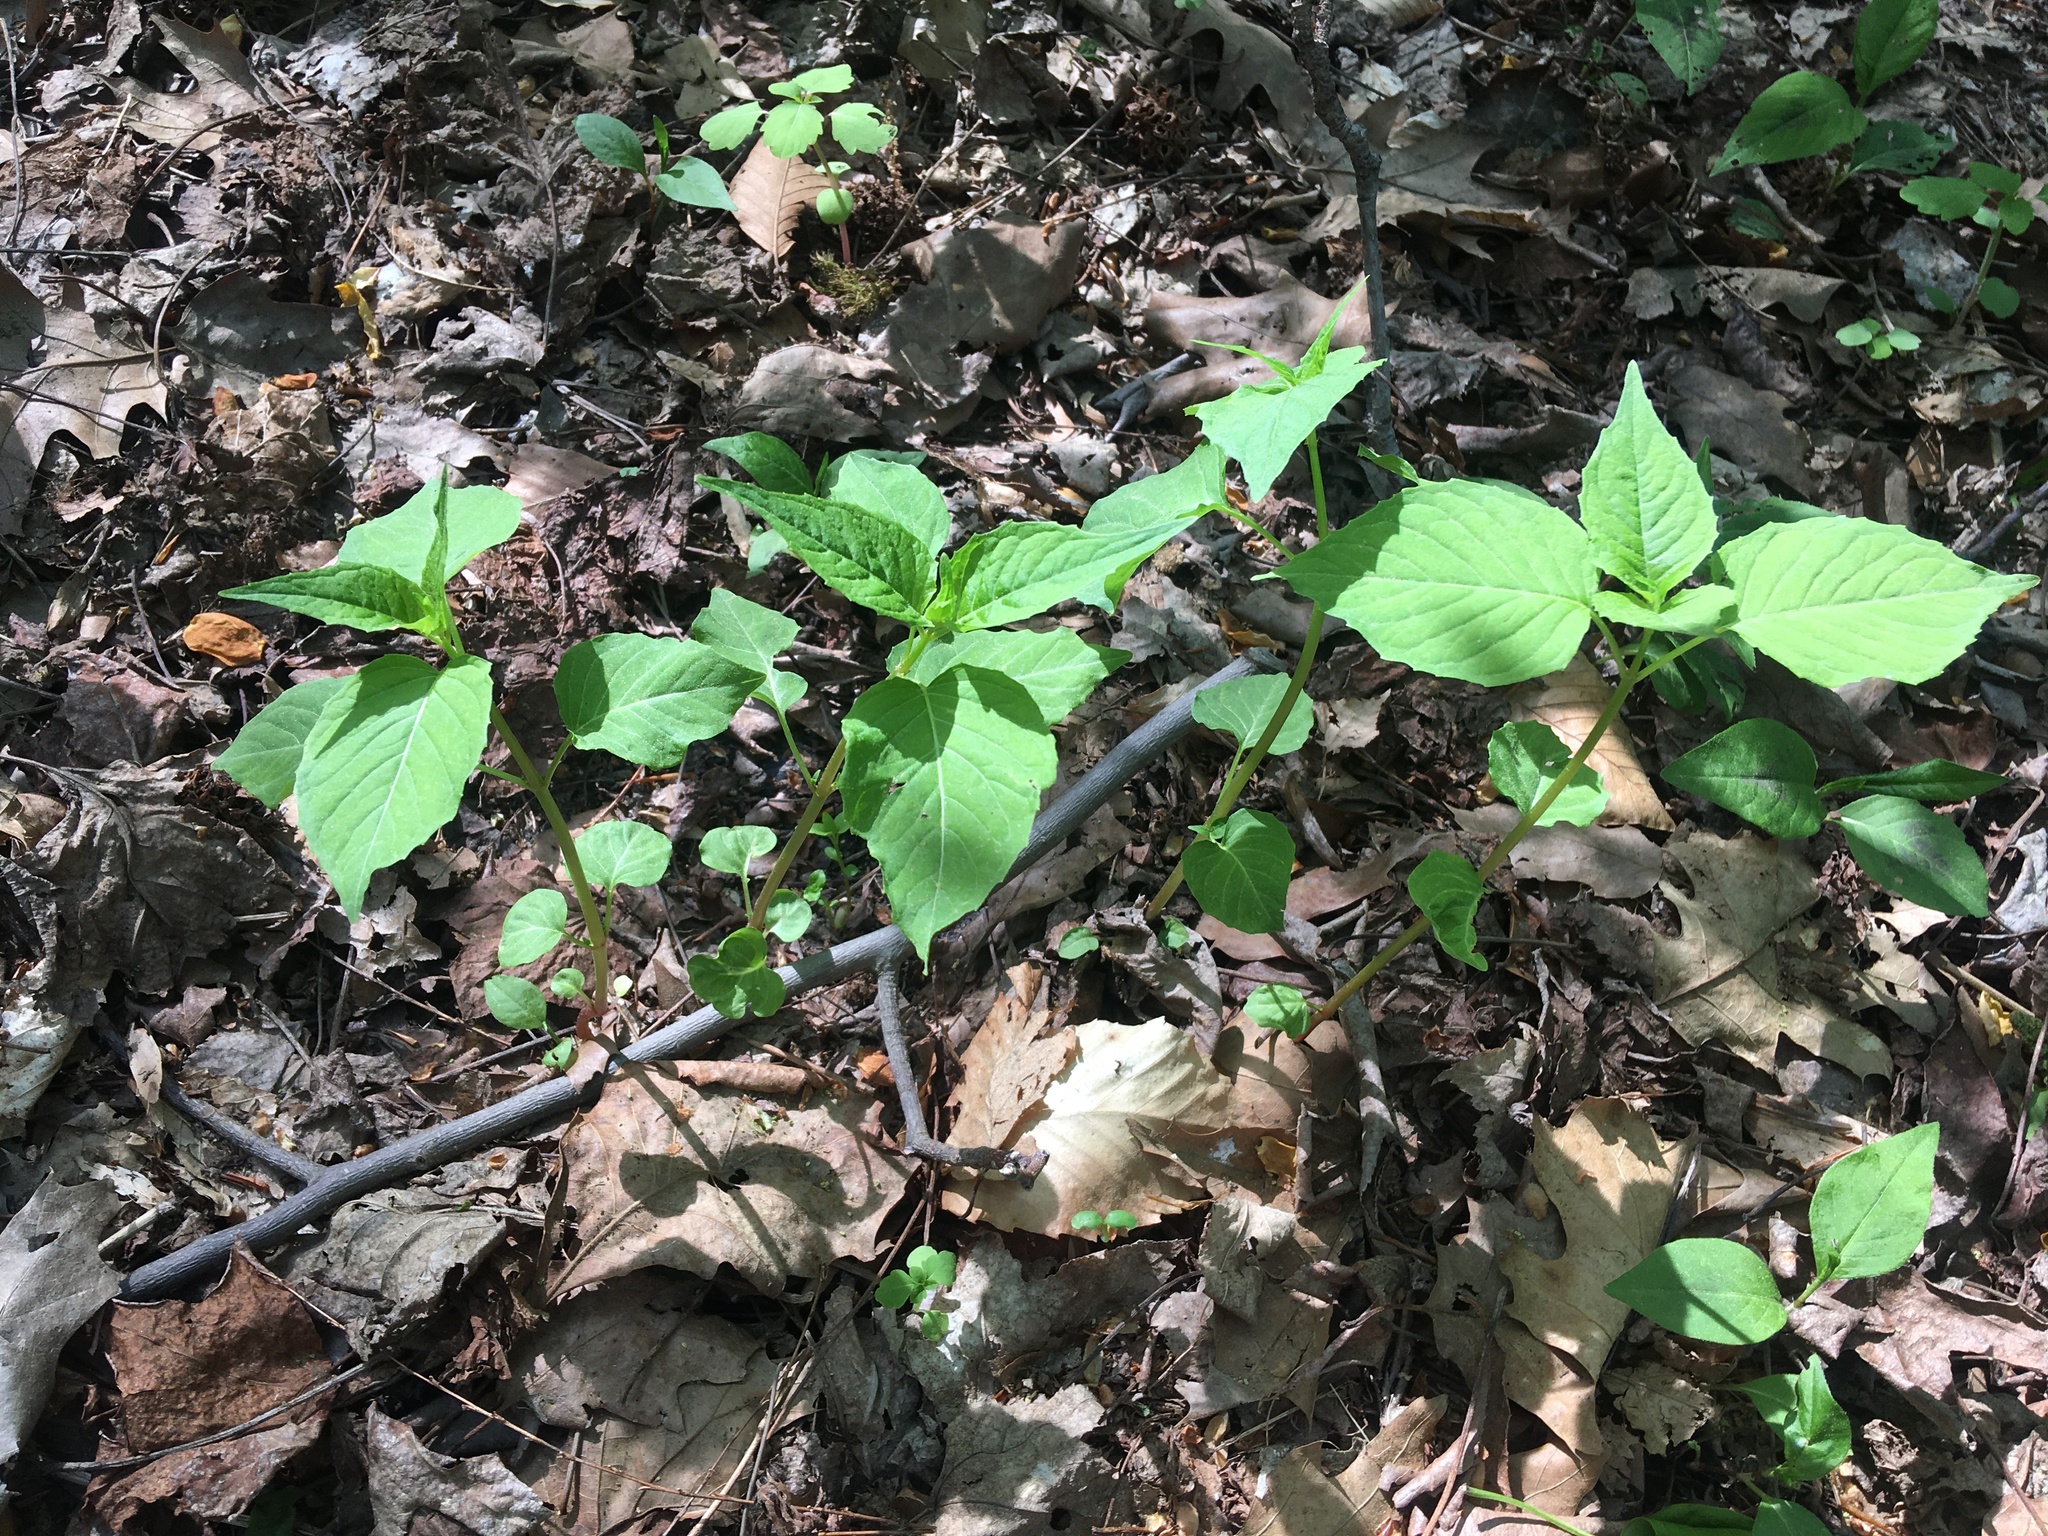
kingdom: Plantae
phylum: Tracheophyta
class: Magnoliopsida
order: Myrtales
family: Onagraceae
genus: Circaea
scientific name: Circaea canadensis
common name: Broad-leaved enchanter's nightshade
